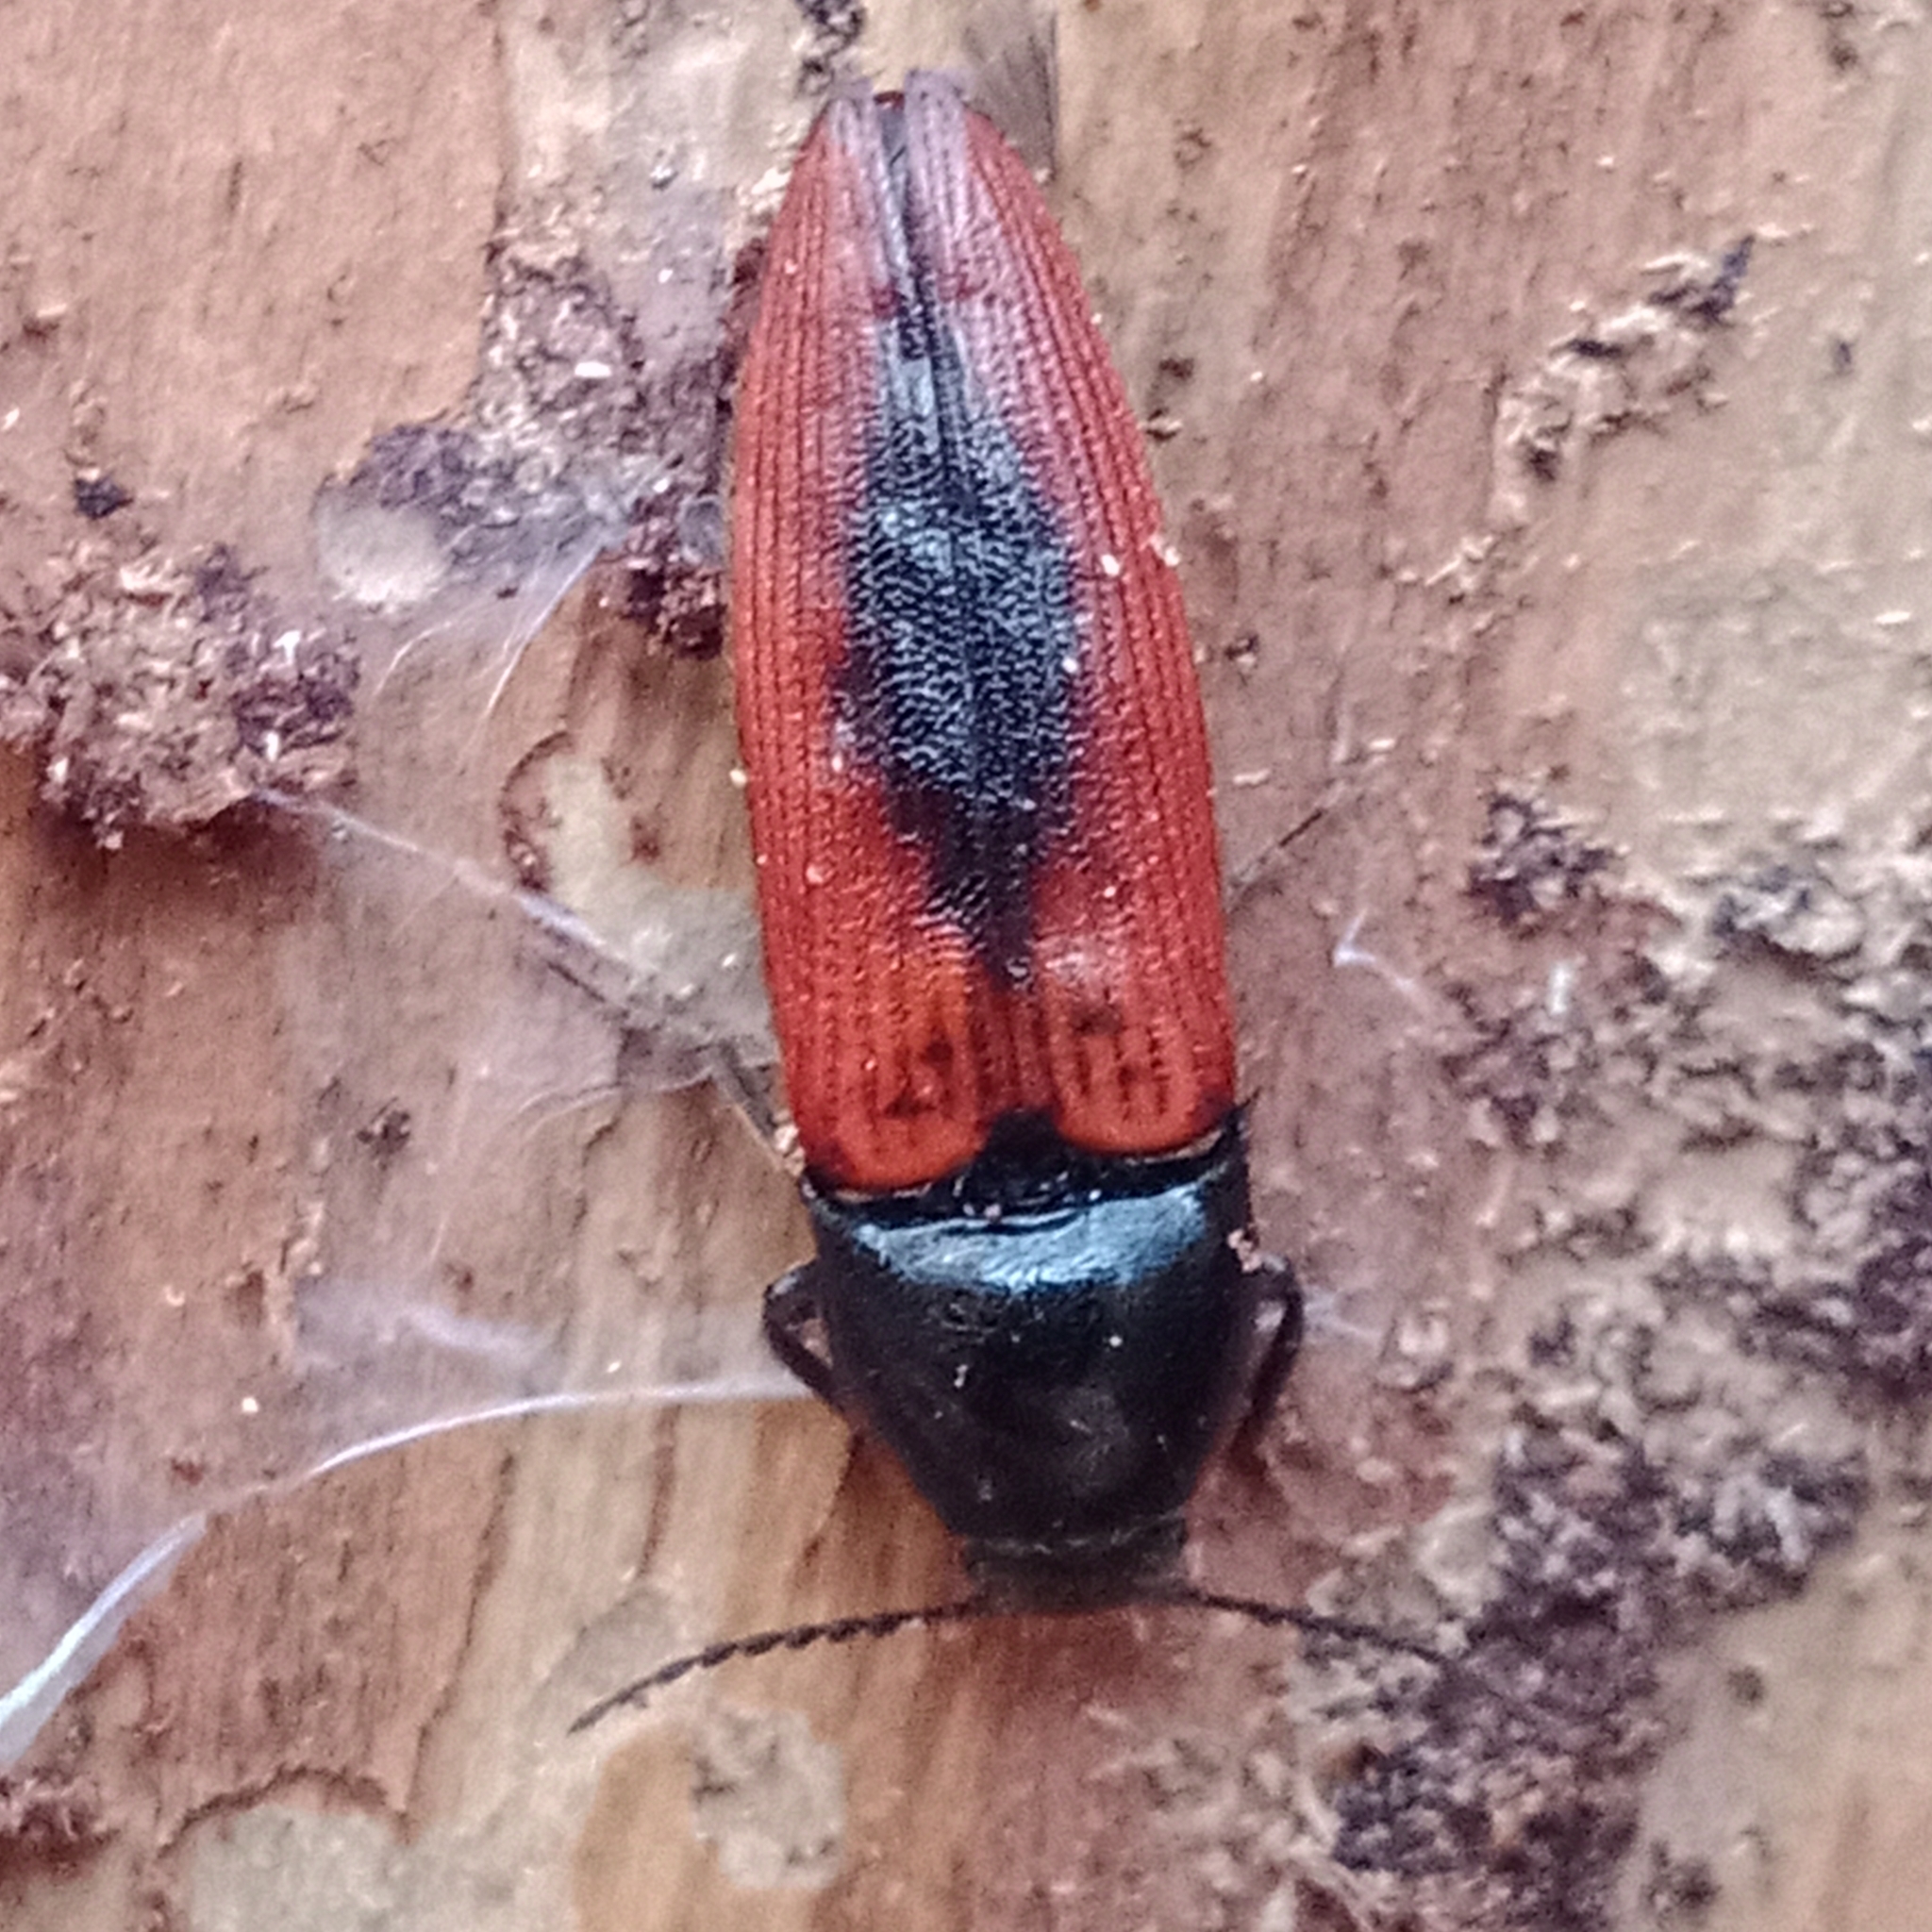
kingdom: Animalia
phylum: Arthropoda
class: Insecta
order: Coleoptera
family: Elateridae
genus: Ampedus
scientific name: Ampedus sanguinolentus
